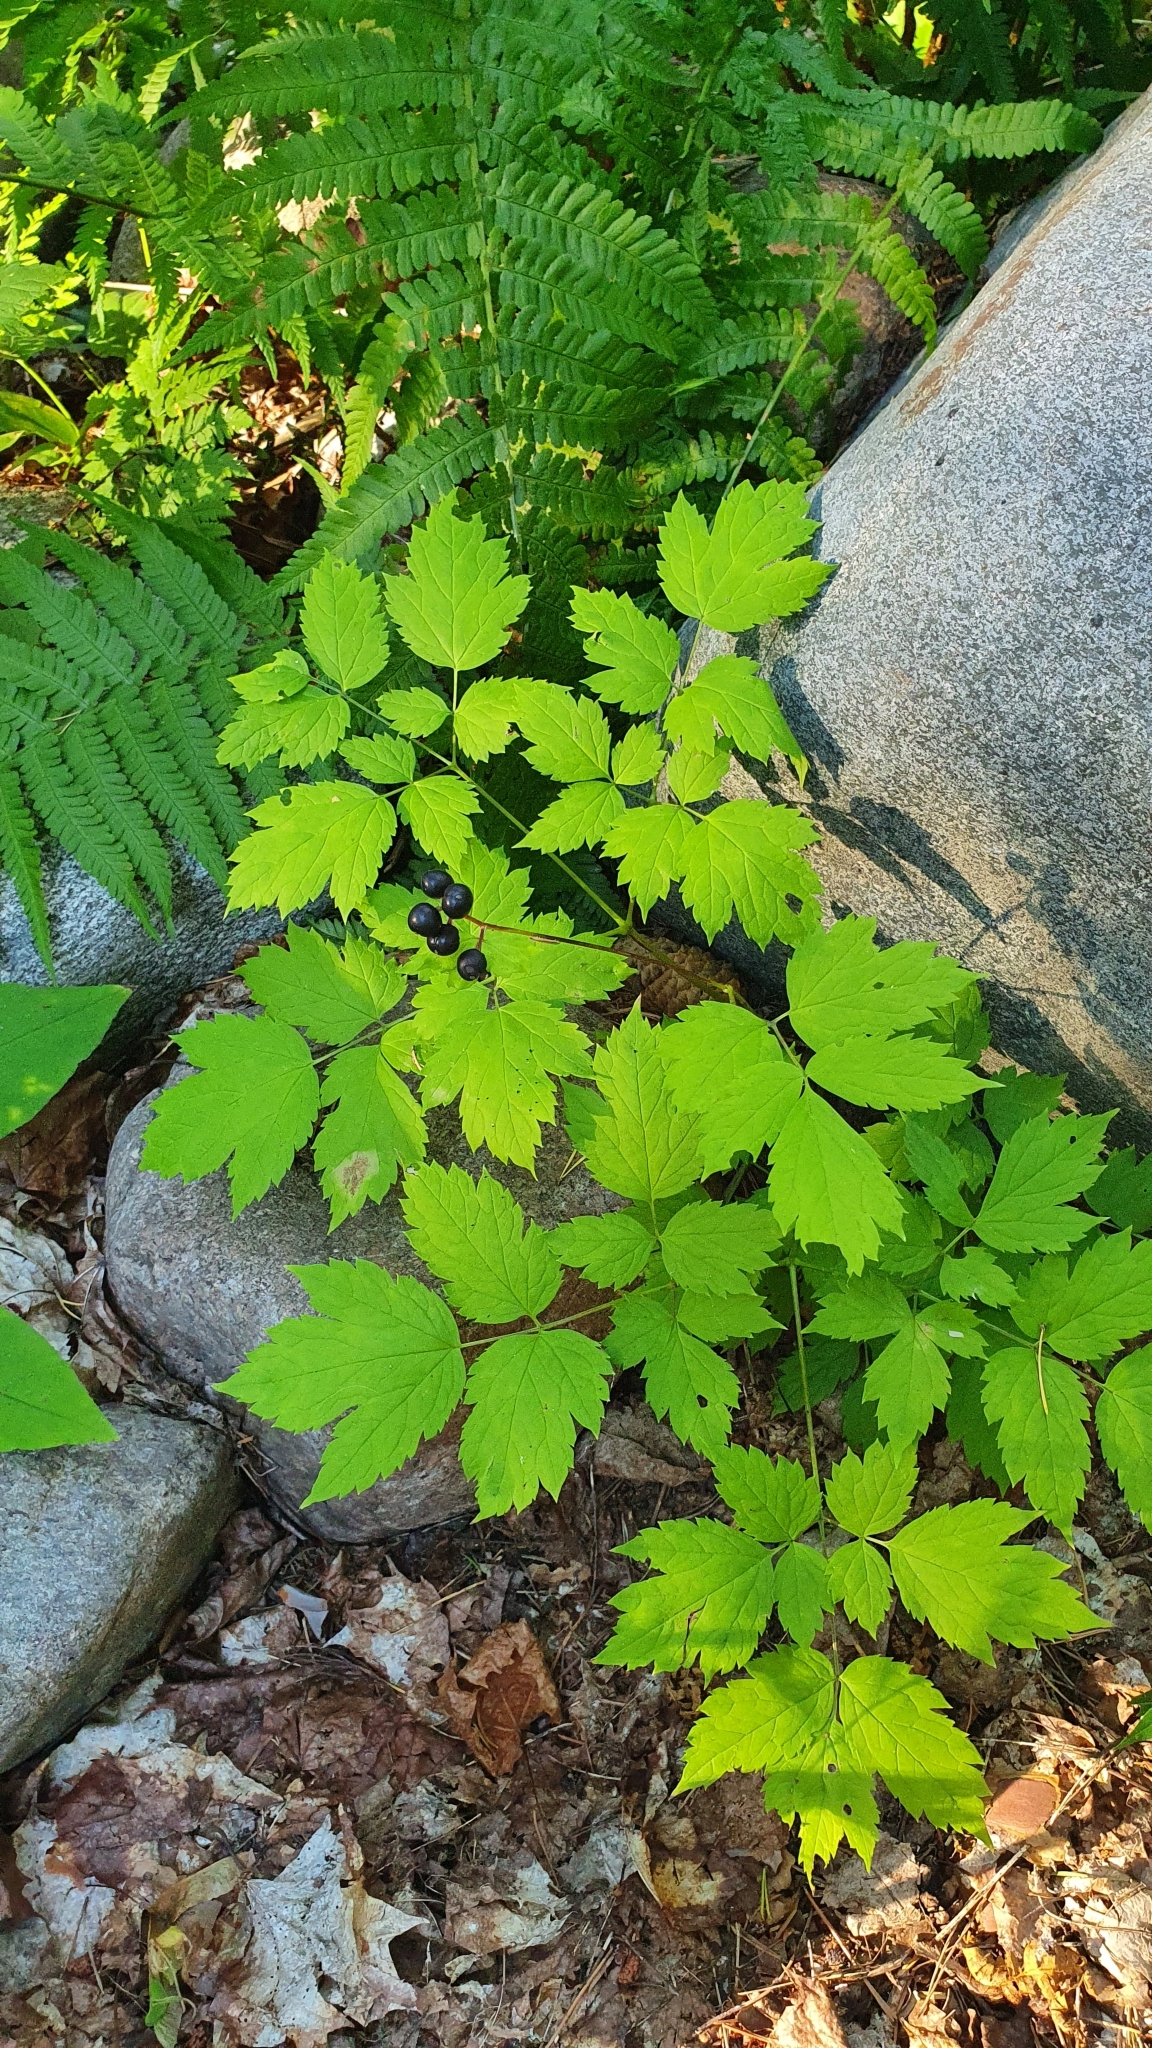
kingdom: Plantae
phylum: Tracheophyta
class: Magnoliopsida
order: Ranunculales
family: Ranunculaceae
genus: Actaea
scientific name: Actaea spicata
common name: Baneberry
